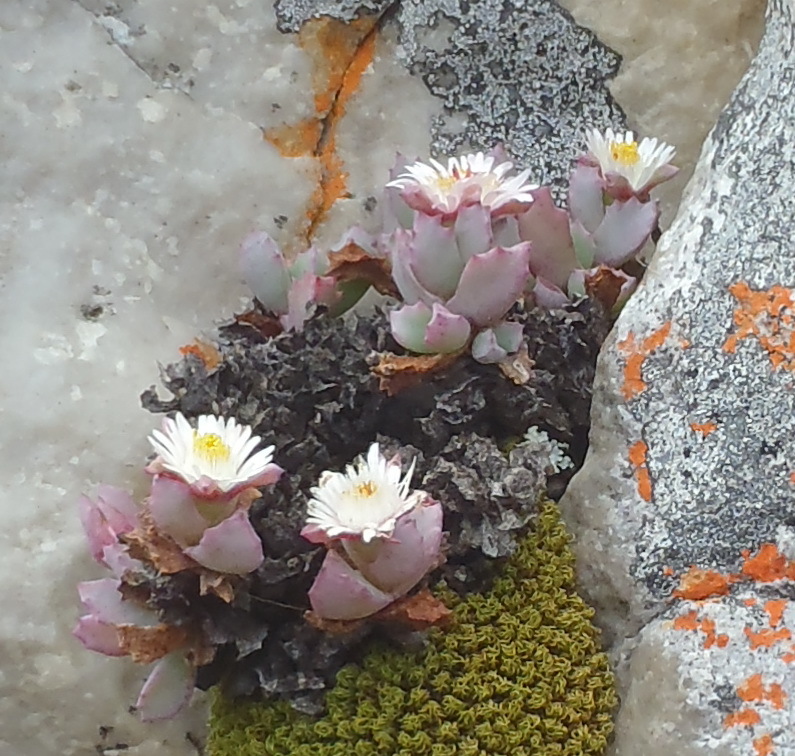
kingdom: Plantae
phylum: Tracheophyta
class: Magnoliopsida
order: Caryophyllales
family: Aizoaceae
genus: Oscularia
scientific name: Oscularia deltoides
